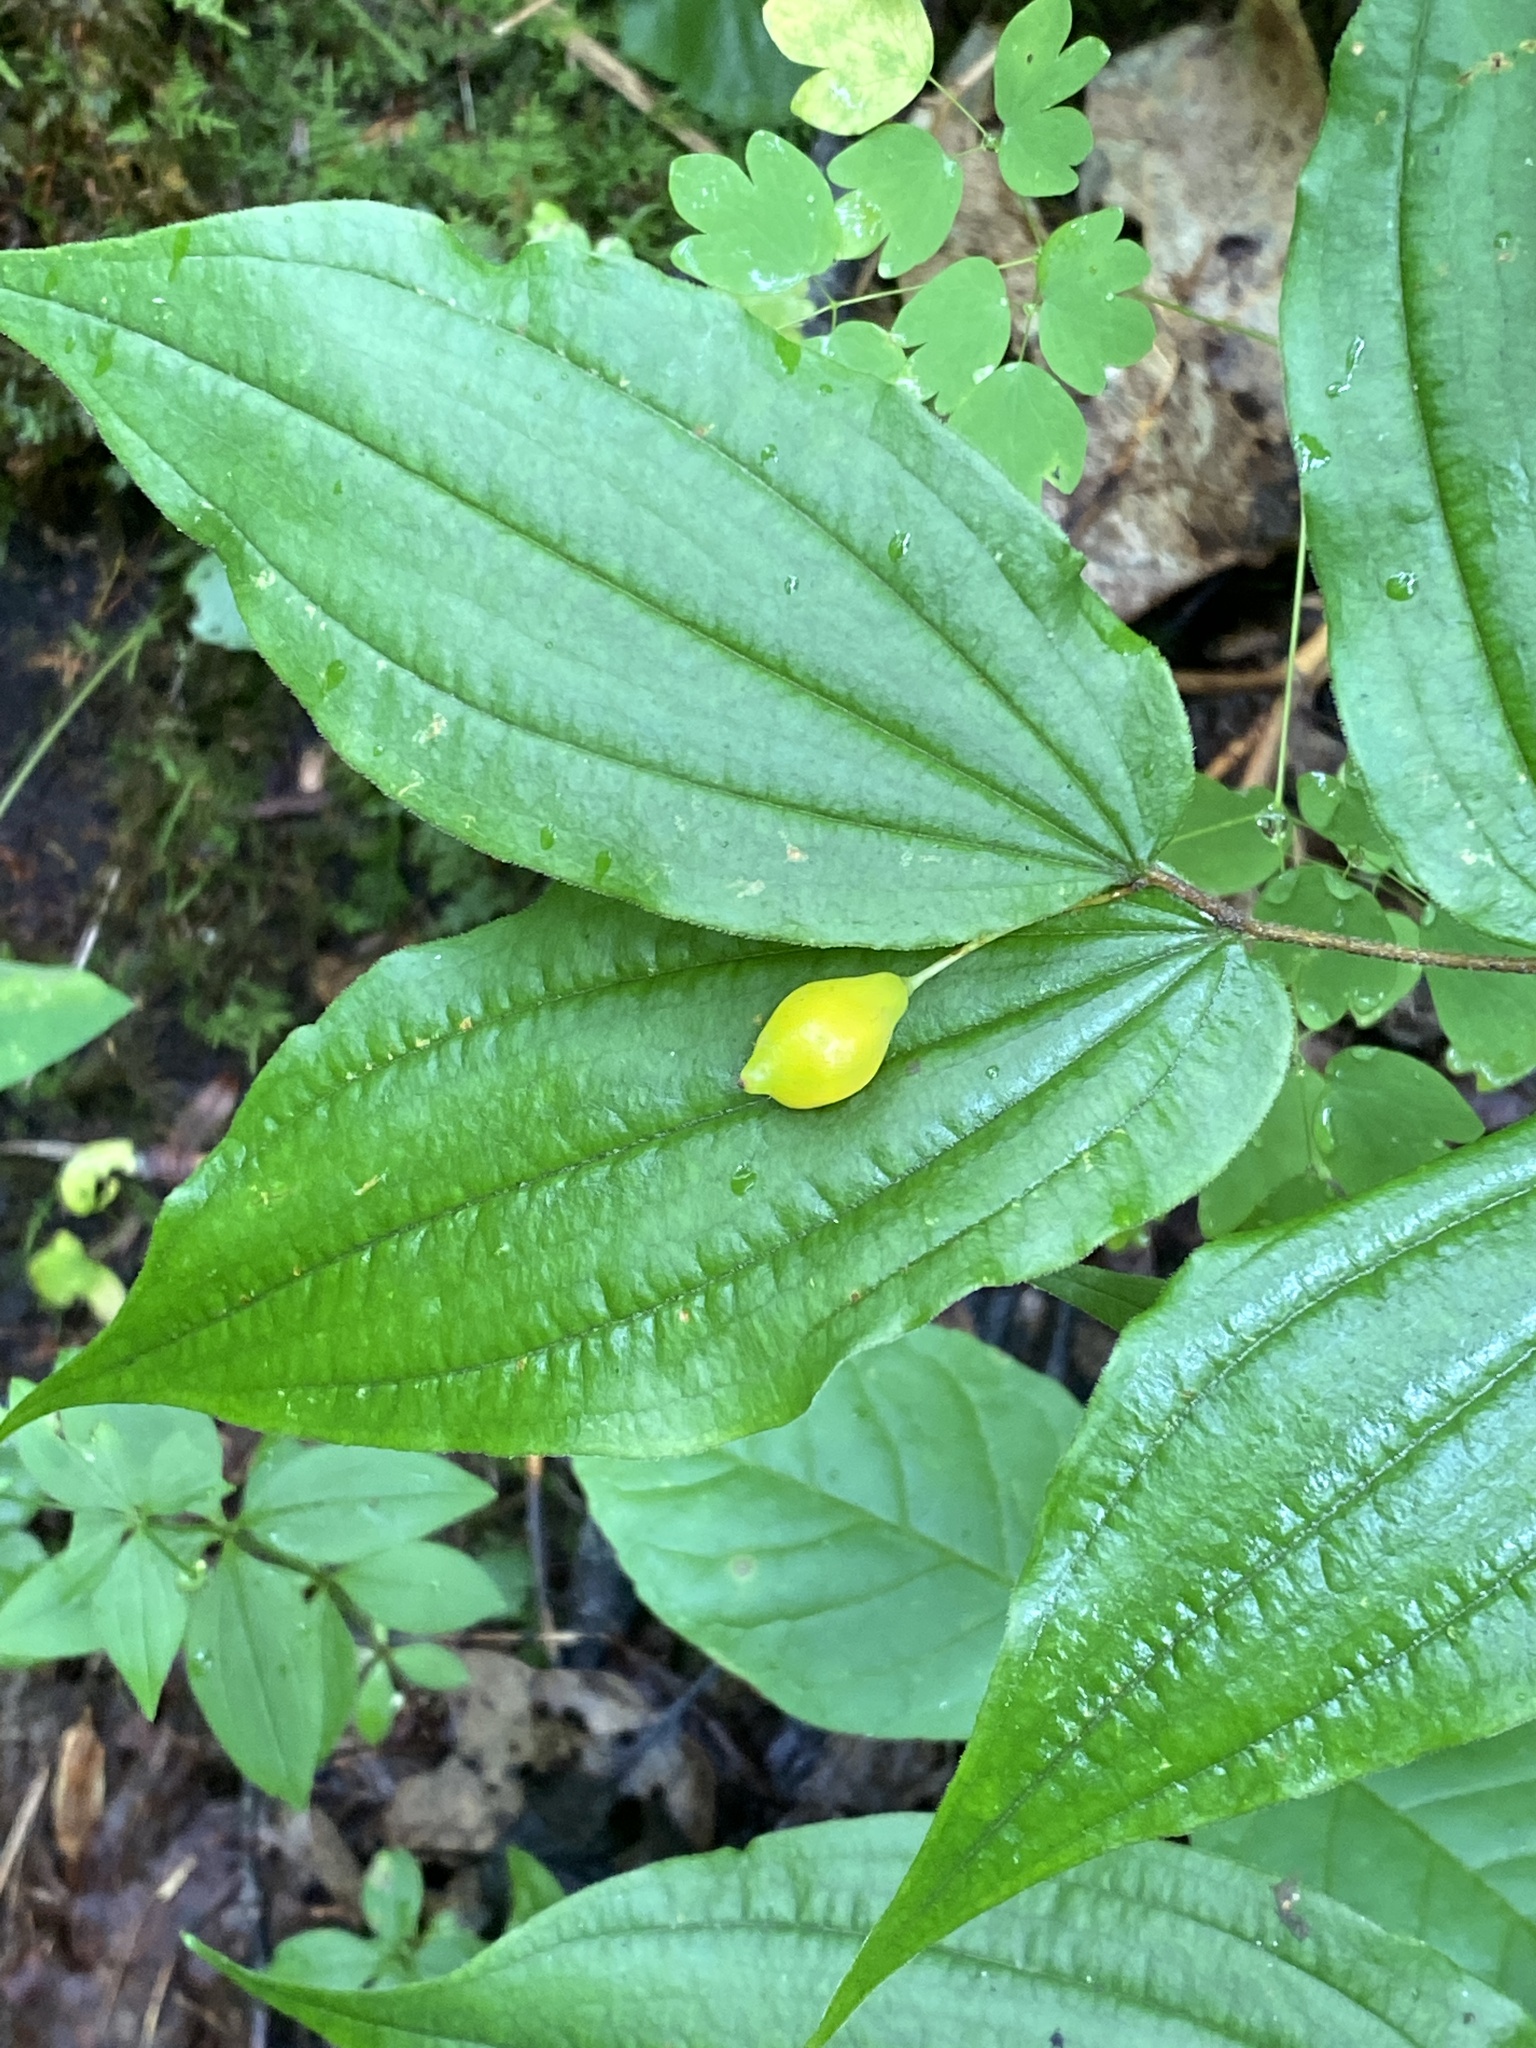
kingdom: Plantae
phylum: Tracheophyta
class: Liliopsida
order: Liliales
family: Liliaceae
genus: Prosartes
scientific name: Prosartes lanuginosa
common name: Hairy mandarin
